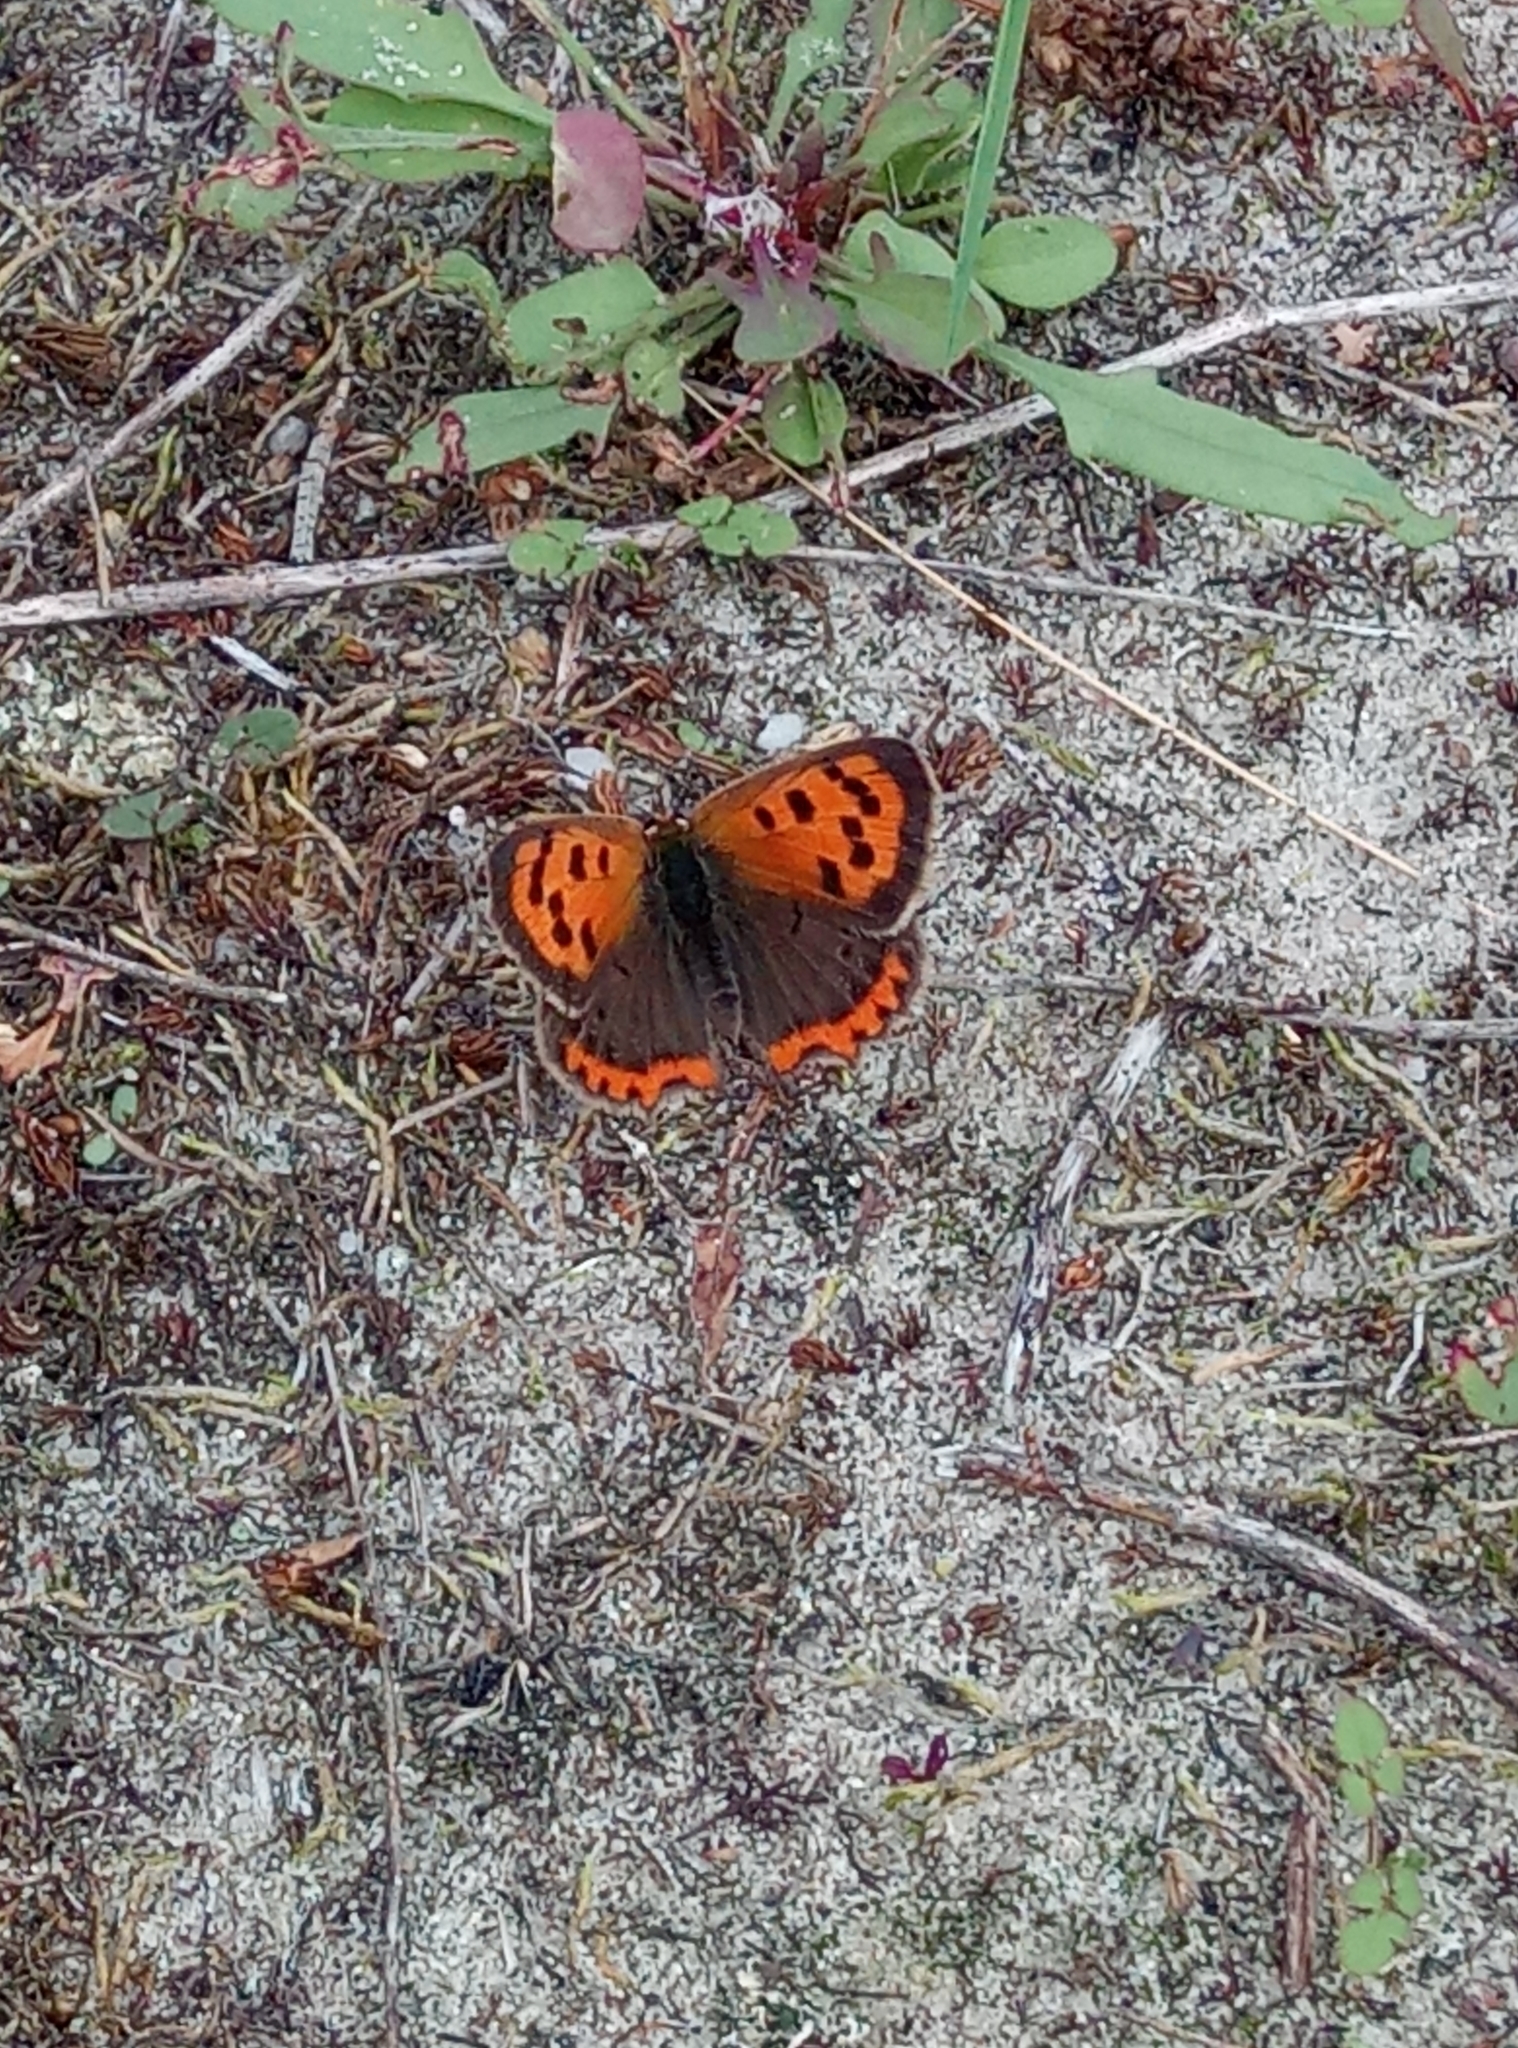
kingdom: Animalia
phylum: Arthropoda
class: Insecta
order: Lepidoptera
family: Lycaenidae
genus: Lycaena
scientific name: Lycaena phlaeas
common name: Small copper
